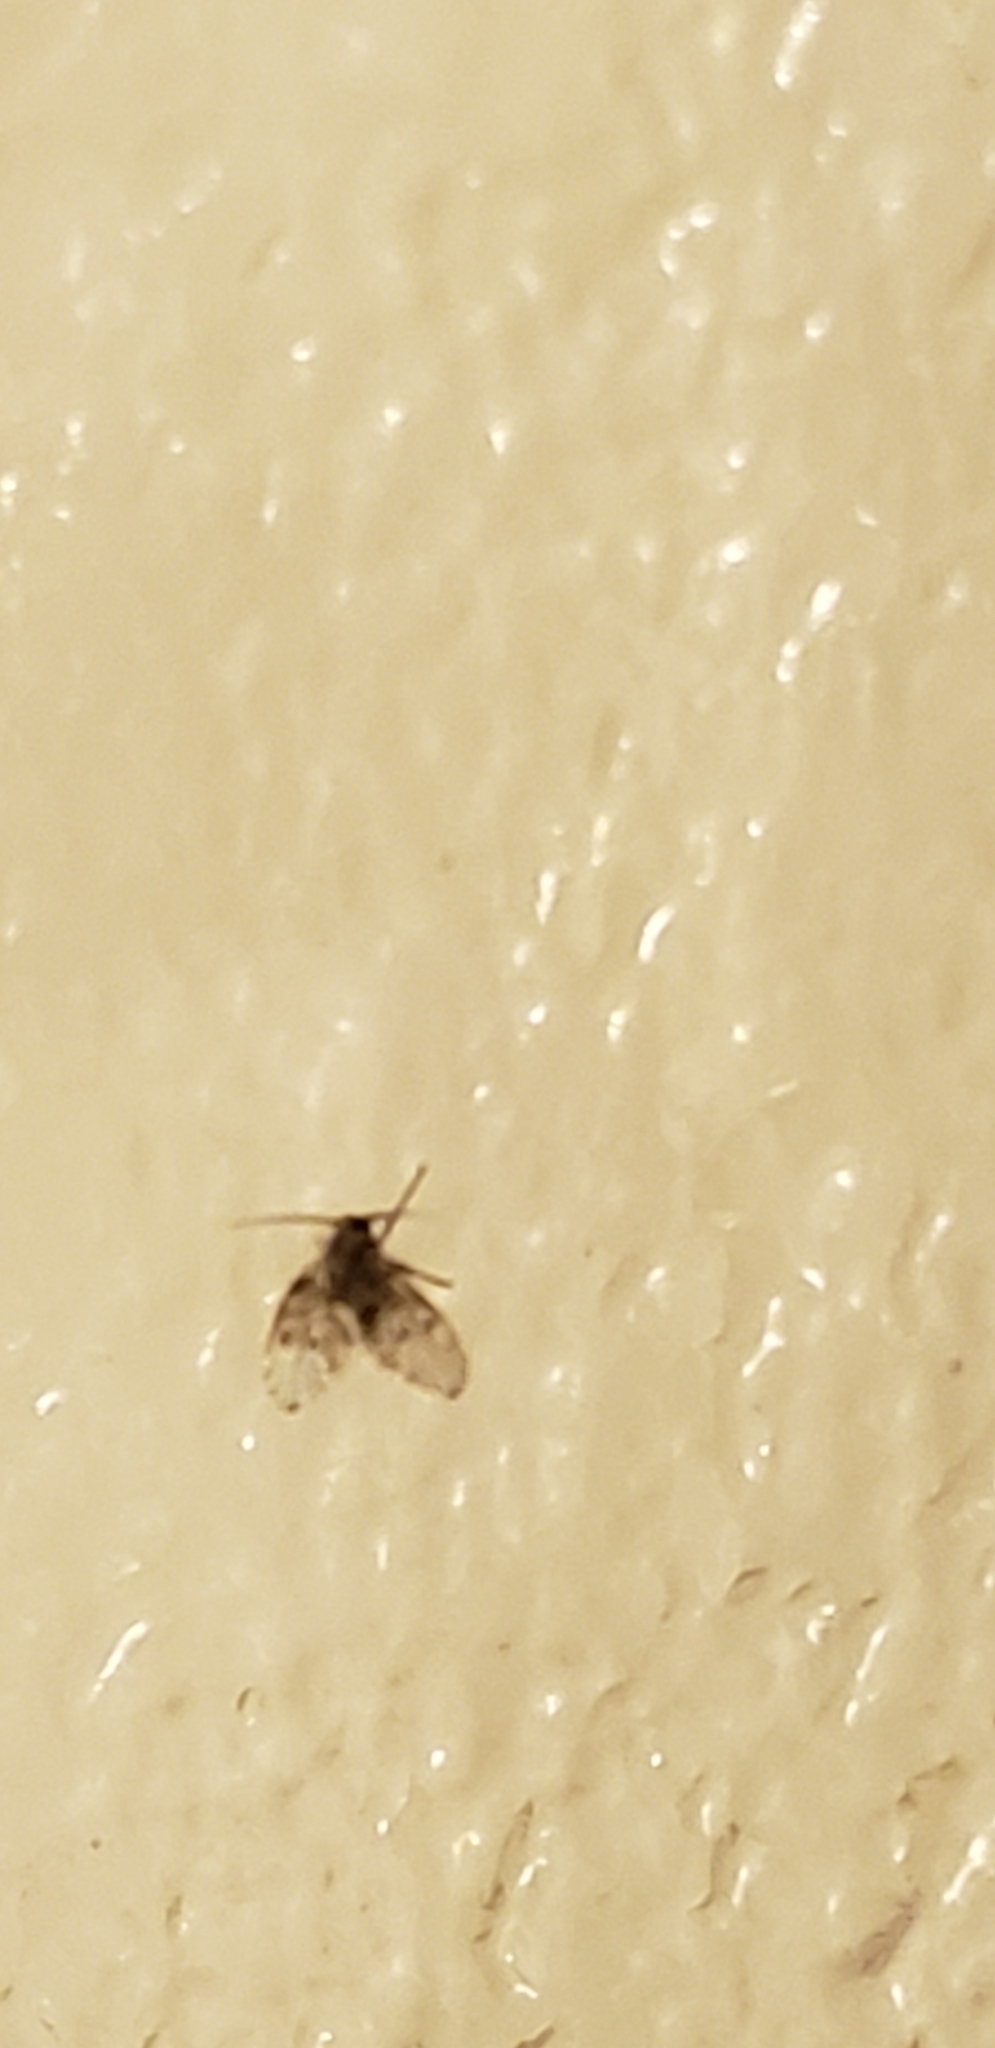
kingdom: Animalia
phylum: Arthropoda
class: Insecta
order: Diptera
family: Psychodidae
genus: Clogmia
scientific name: Clogmia albipunctatus
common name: White-spotted moth fly
